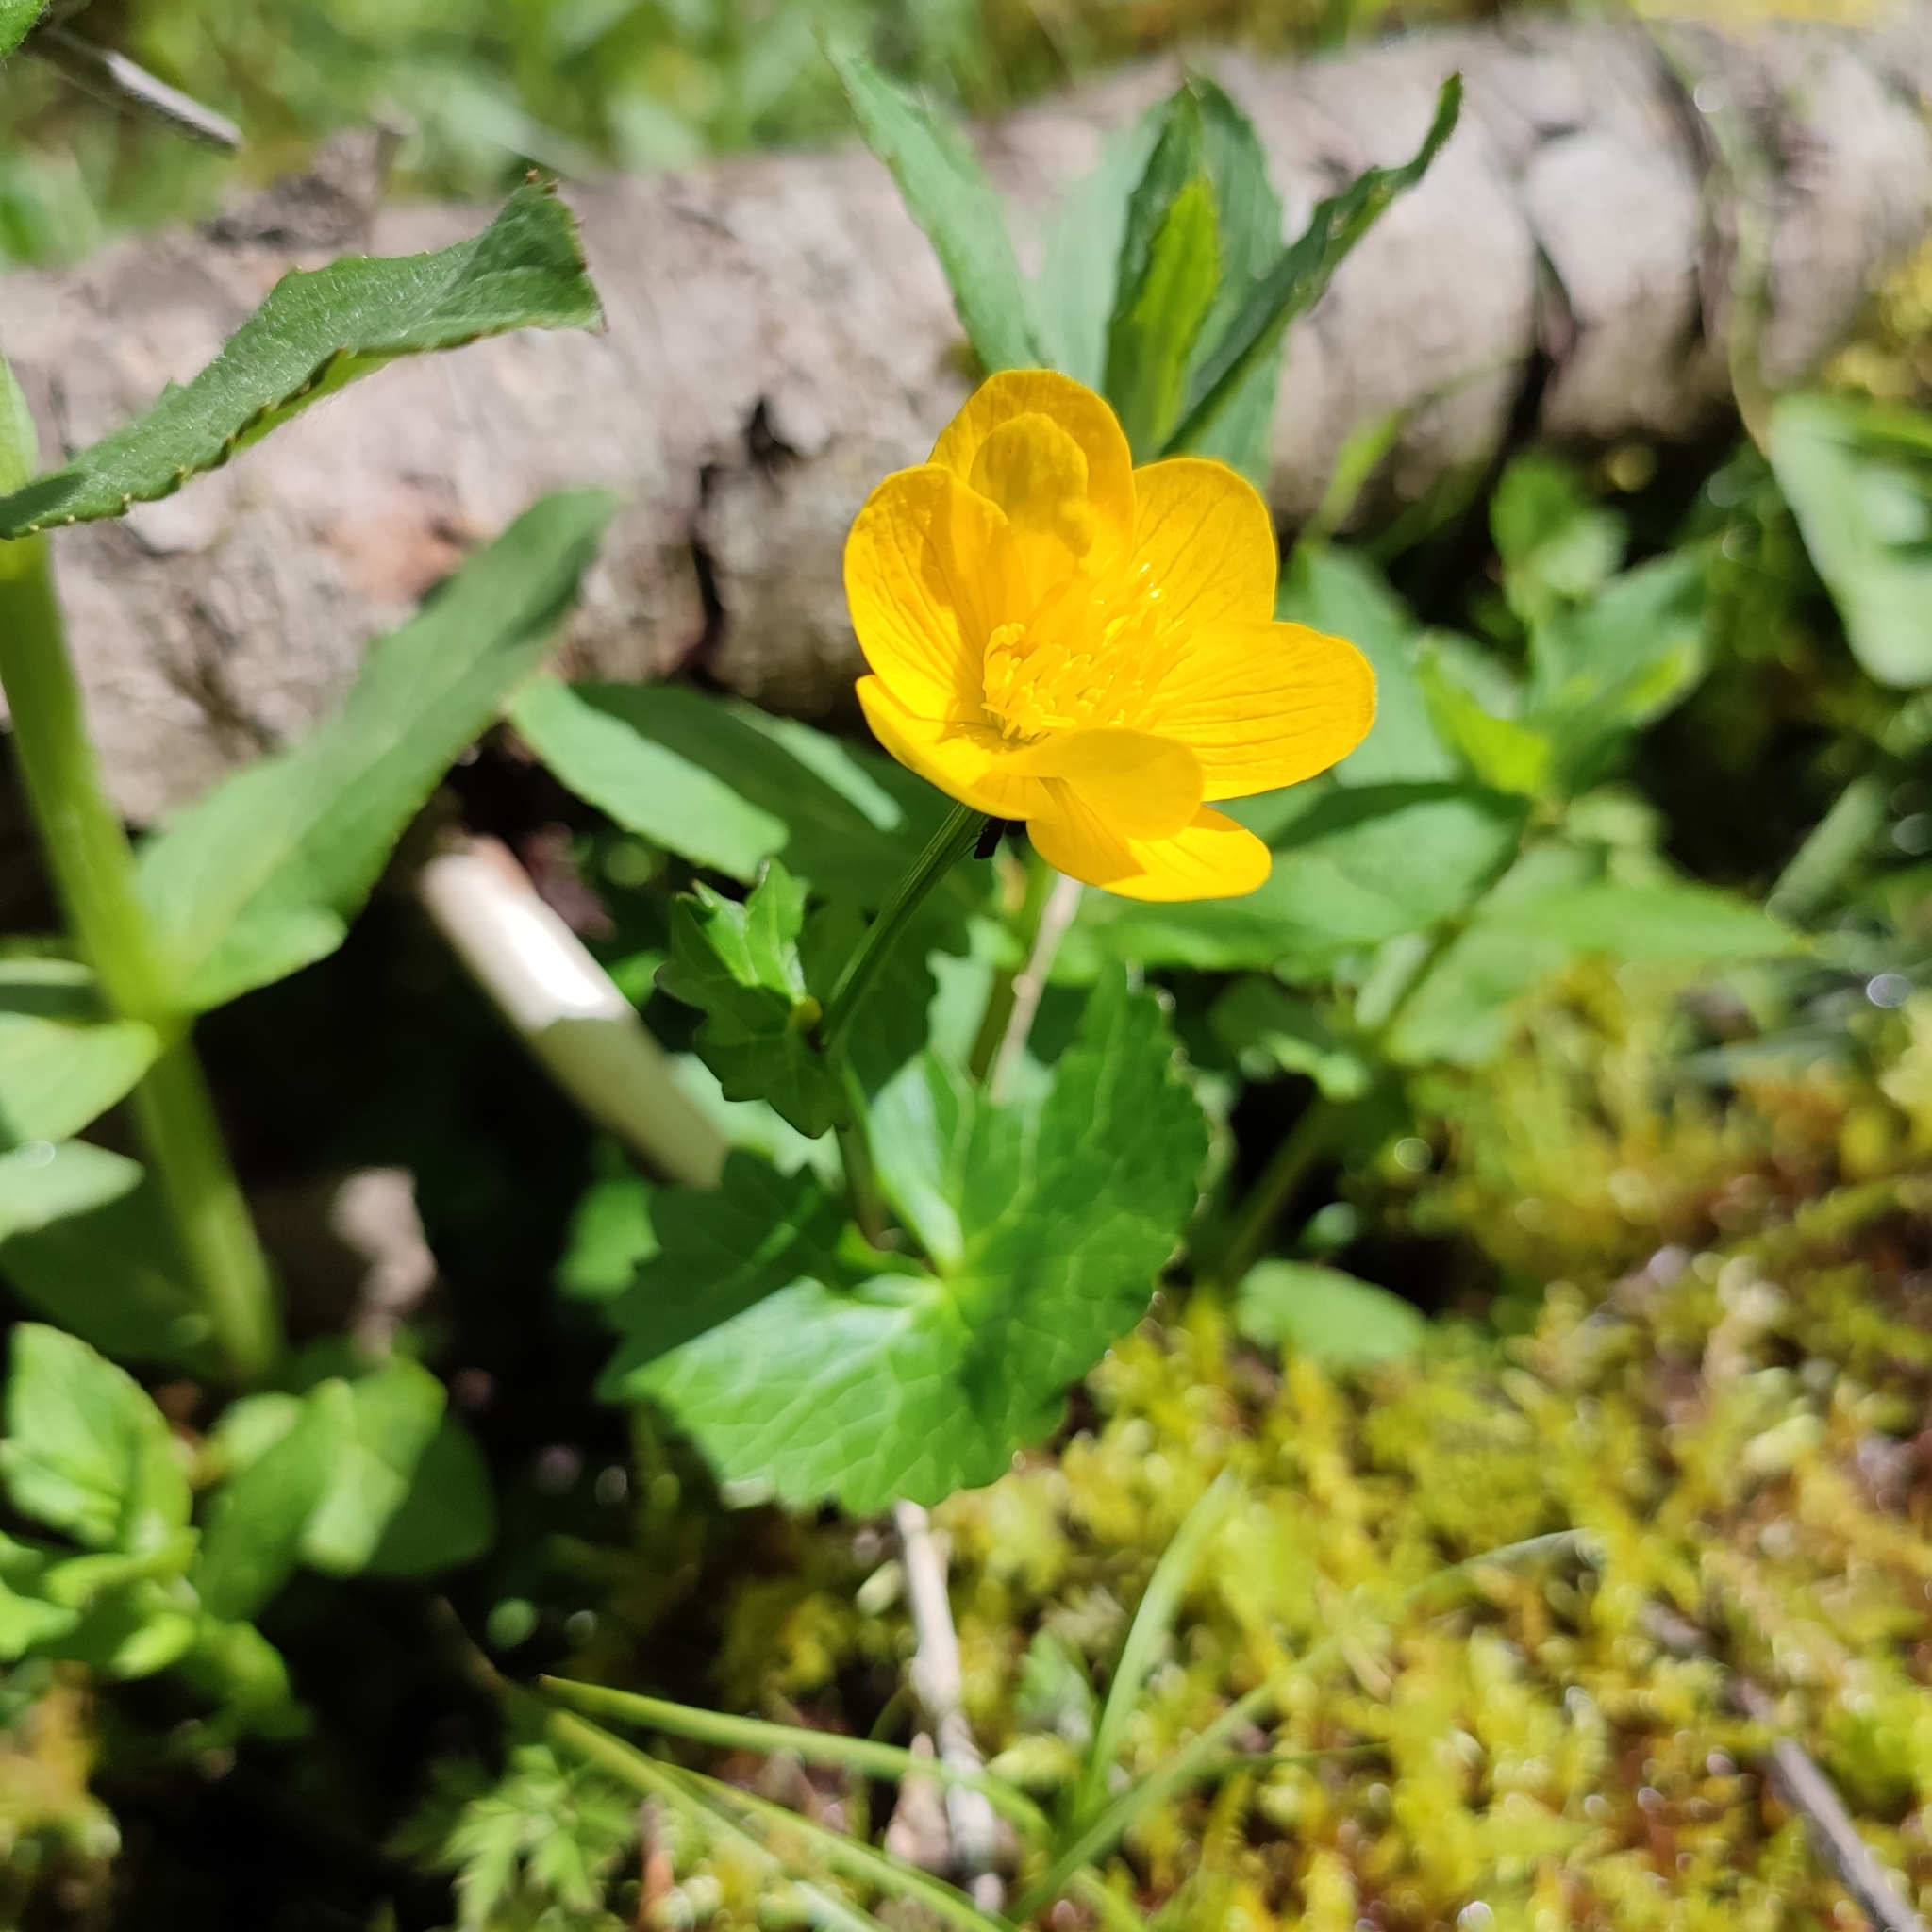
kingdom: Plantae
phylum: Tracheophyta
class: Magnoliopsida
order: Ranunculales
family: Ranunculaceae
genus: Caltha
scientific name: Caltha palustris
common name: Marsh marigold
